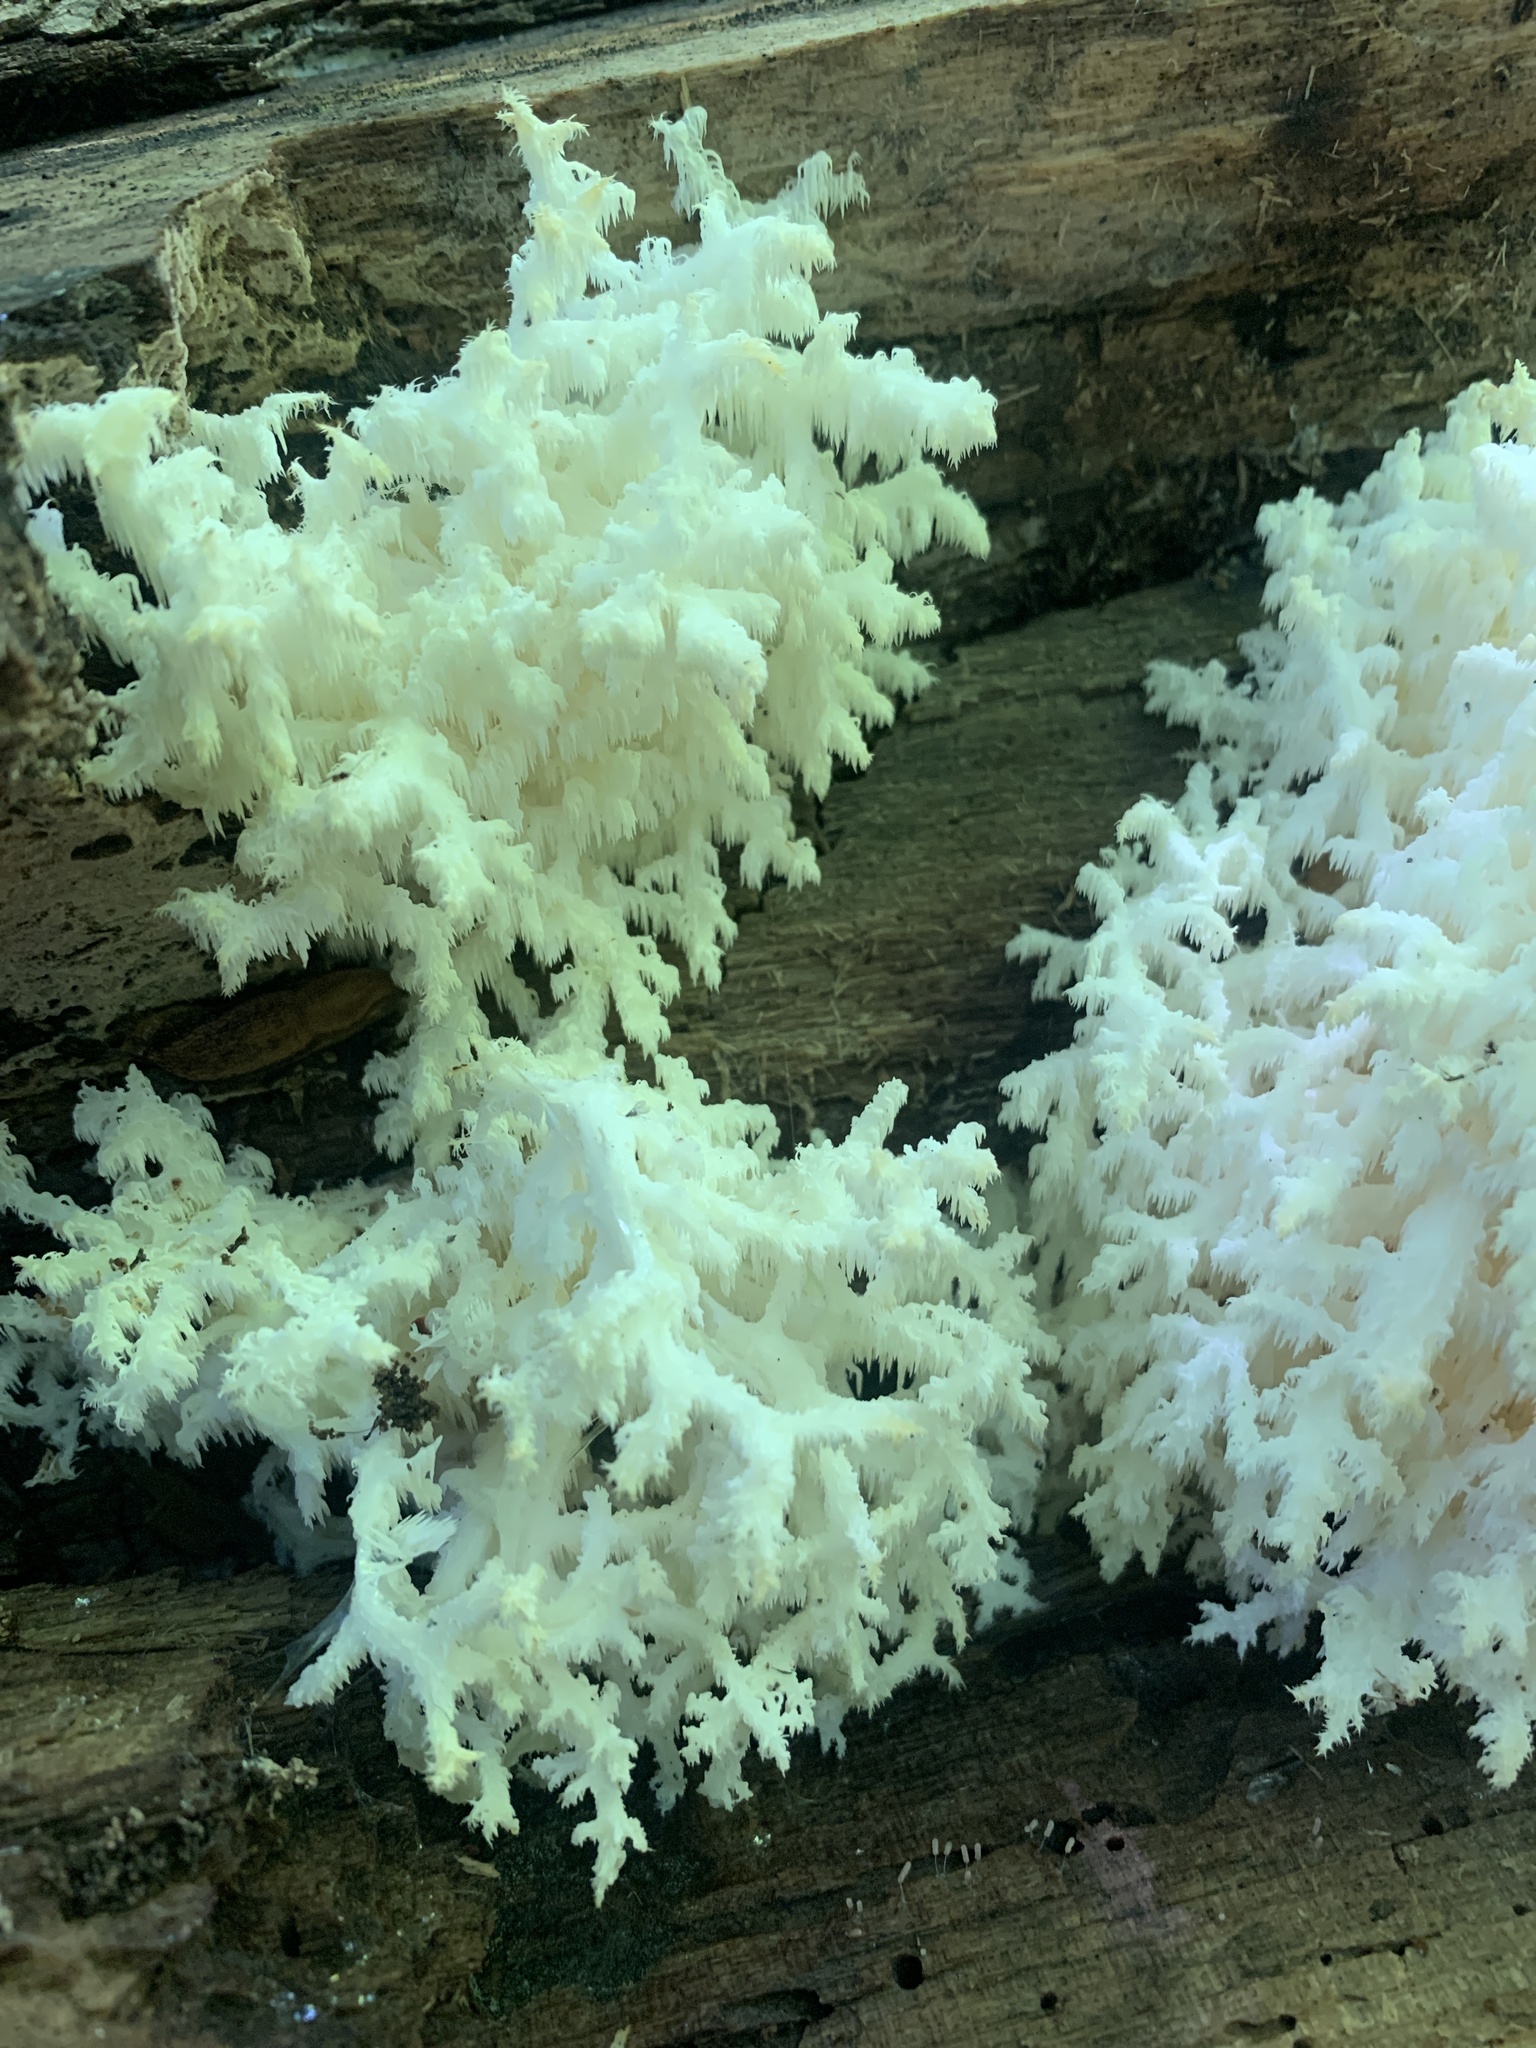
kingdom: Fungi
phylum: Basidiomycota
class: Agaricomycetes
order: Cantharellales
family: Hydnaceae
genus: Clavulina
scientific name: Clavulina coralloides
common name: Crested coral
